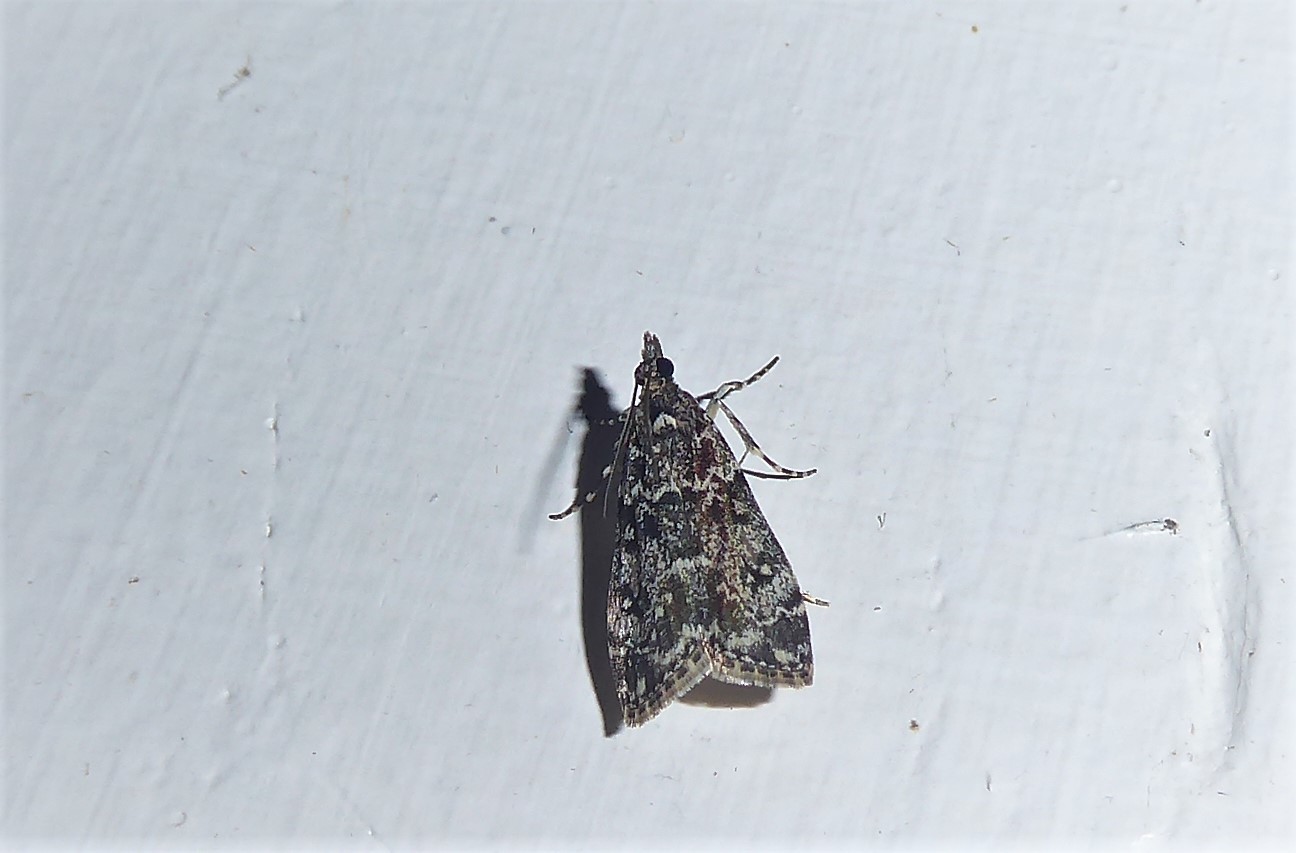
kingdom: Animalia
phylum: Arthropoda
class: Insecta
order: Lepidoptera
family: Crambidae
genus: Eudonia
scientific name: Eudonia philerga
